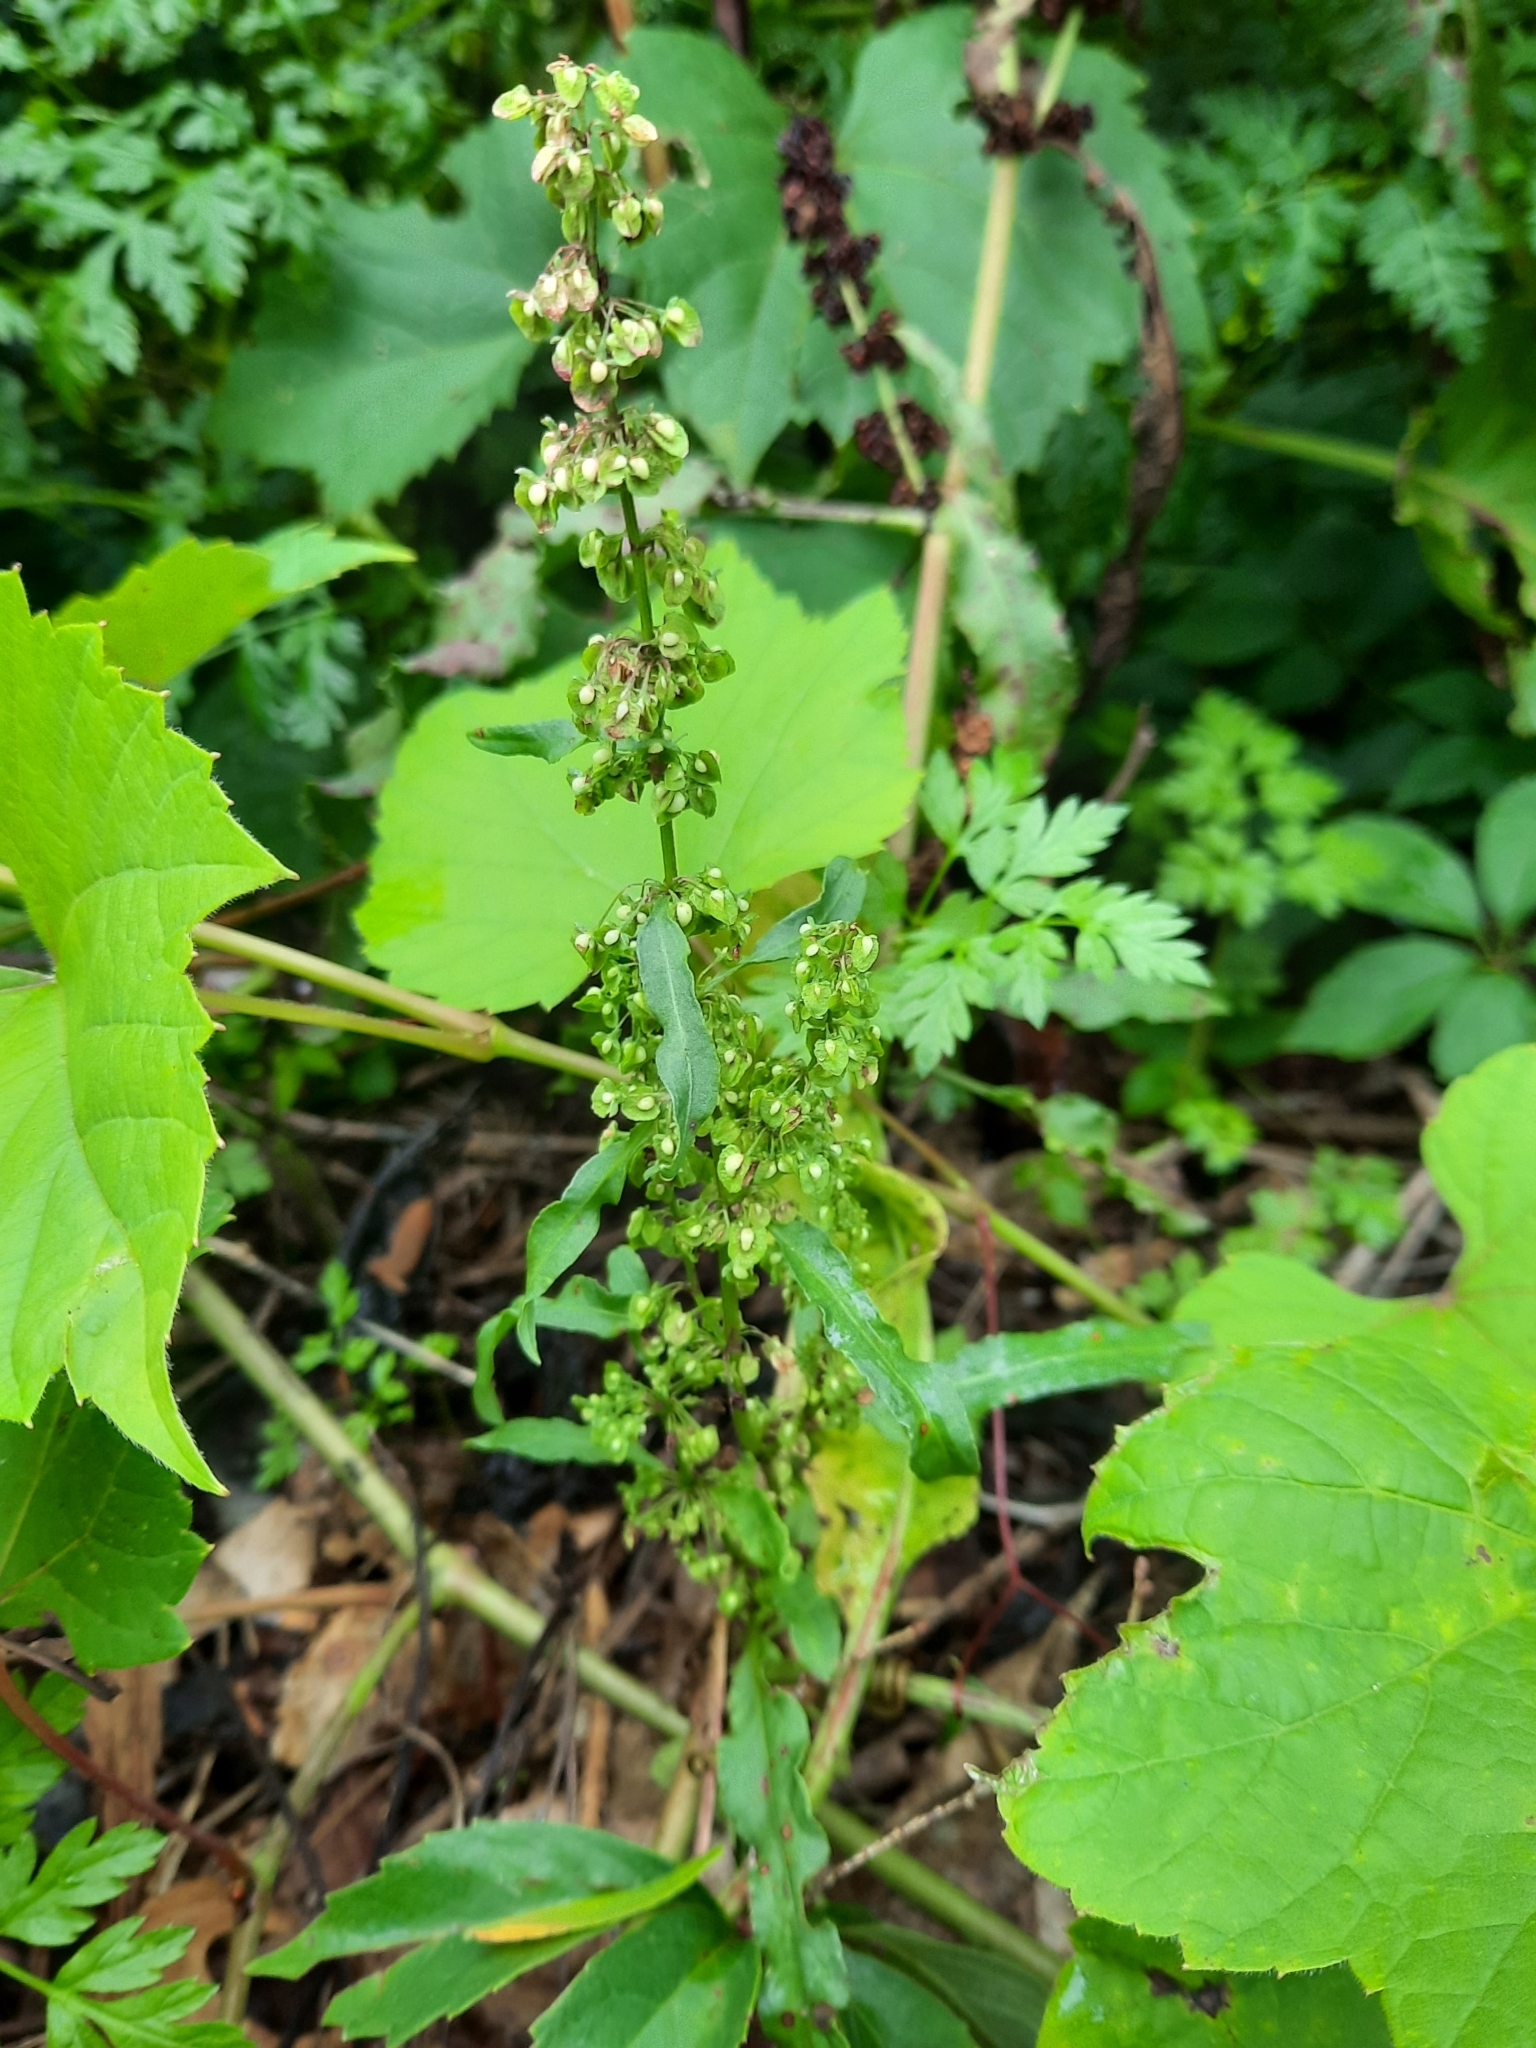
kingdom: Plantae
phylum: Tracheophyta
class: Magnoliopsida
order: Caryophyllales
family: Polygonaceae
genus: Rumex
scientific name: Rumex crispus
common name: Curled dock
